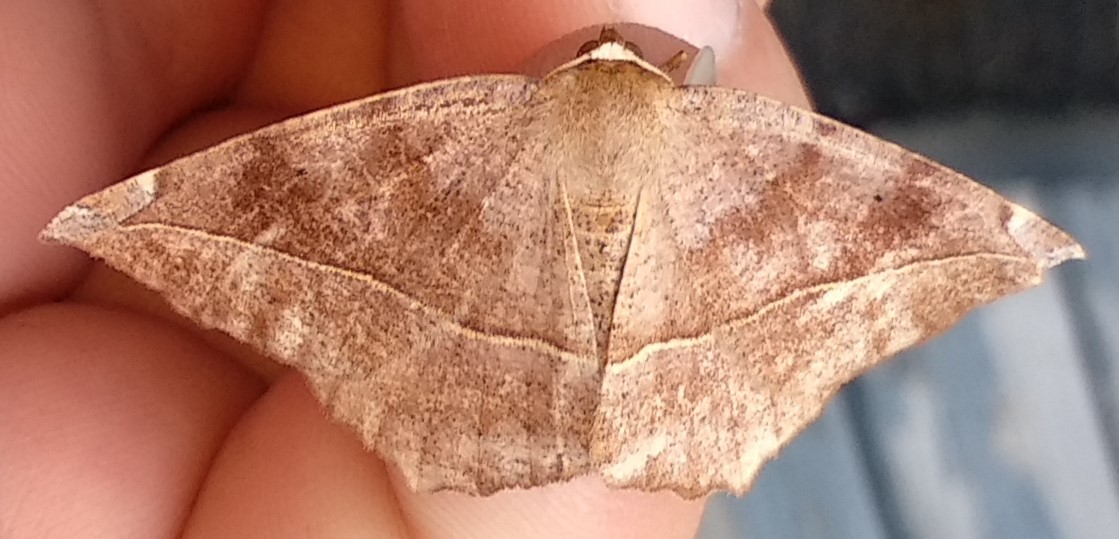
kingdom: Animalia
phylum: Arthropoda
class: Insecta
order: Lepidoptera
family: Geometridae
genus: Eutrapela
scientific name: Eutrapela clemataria
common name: Curved-toothed geometer
